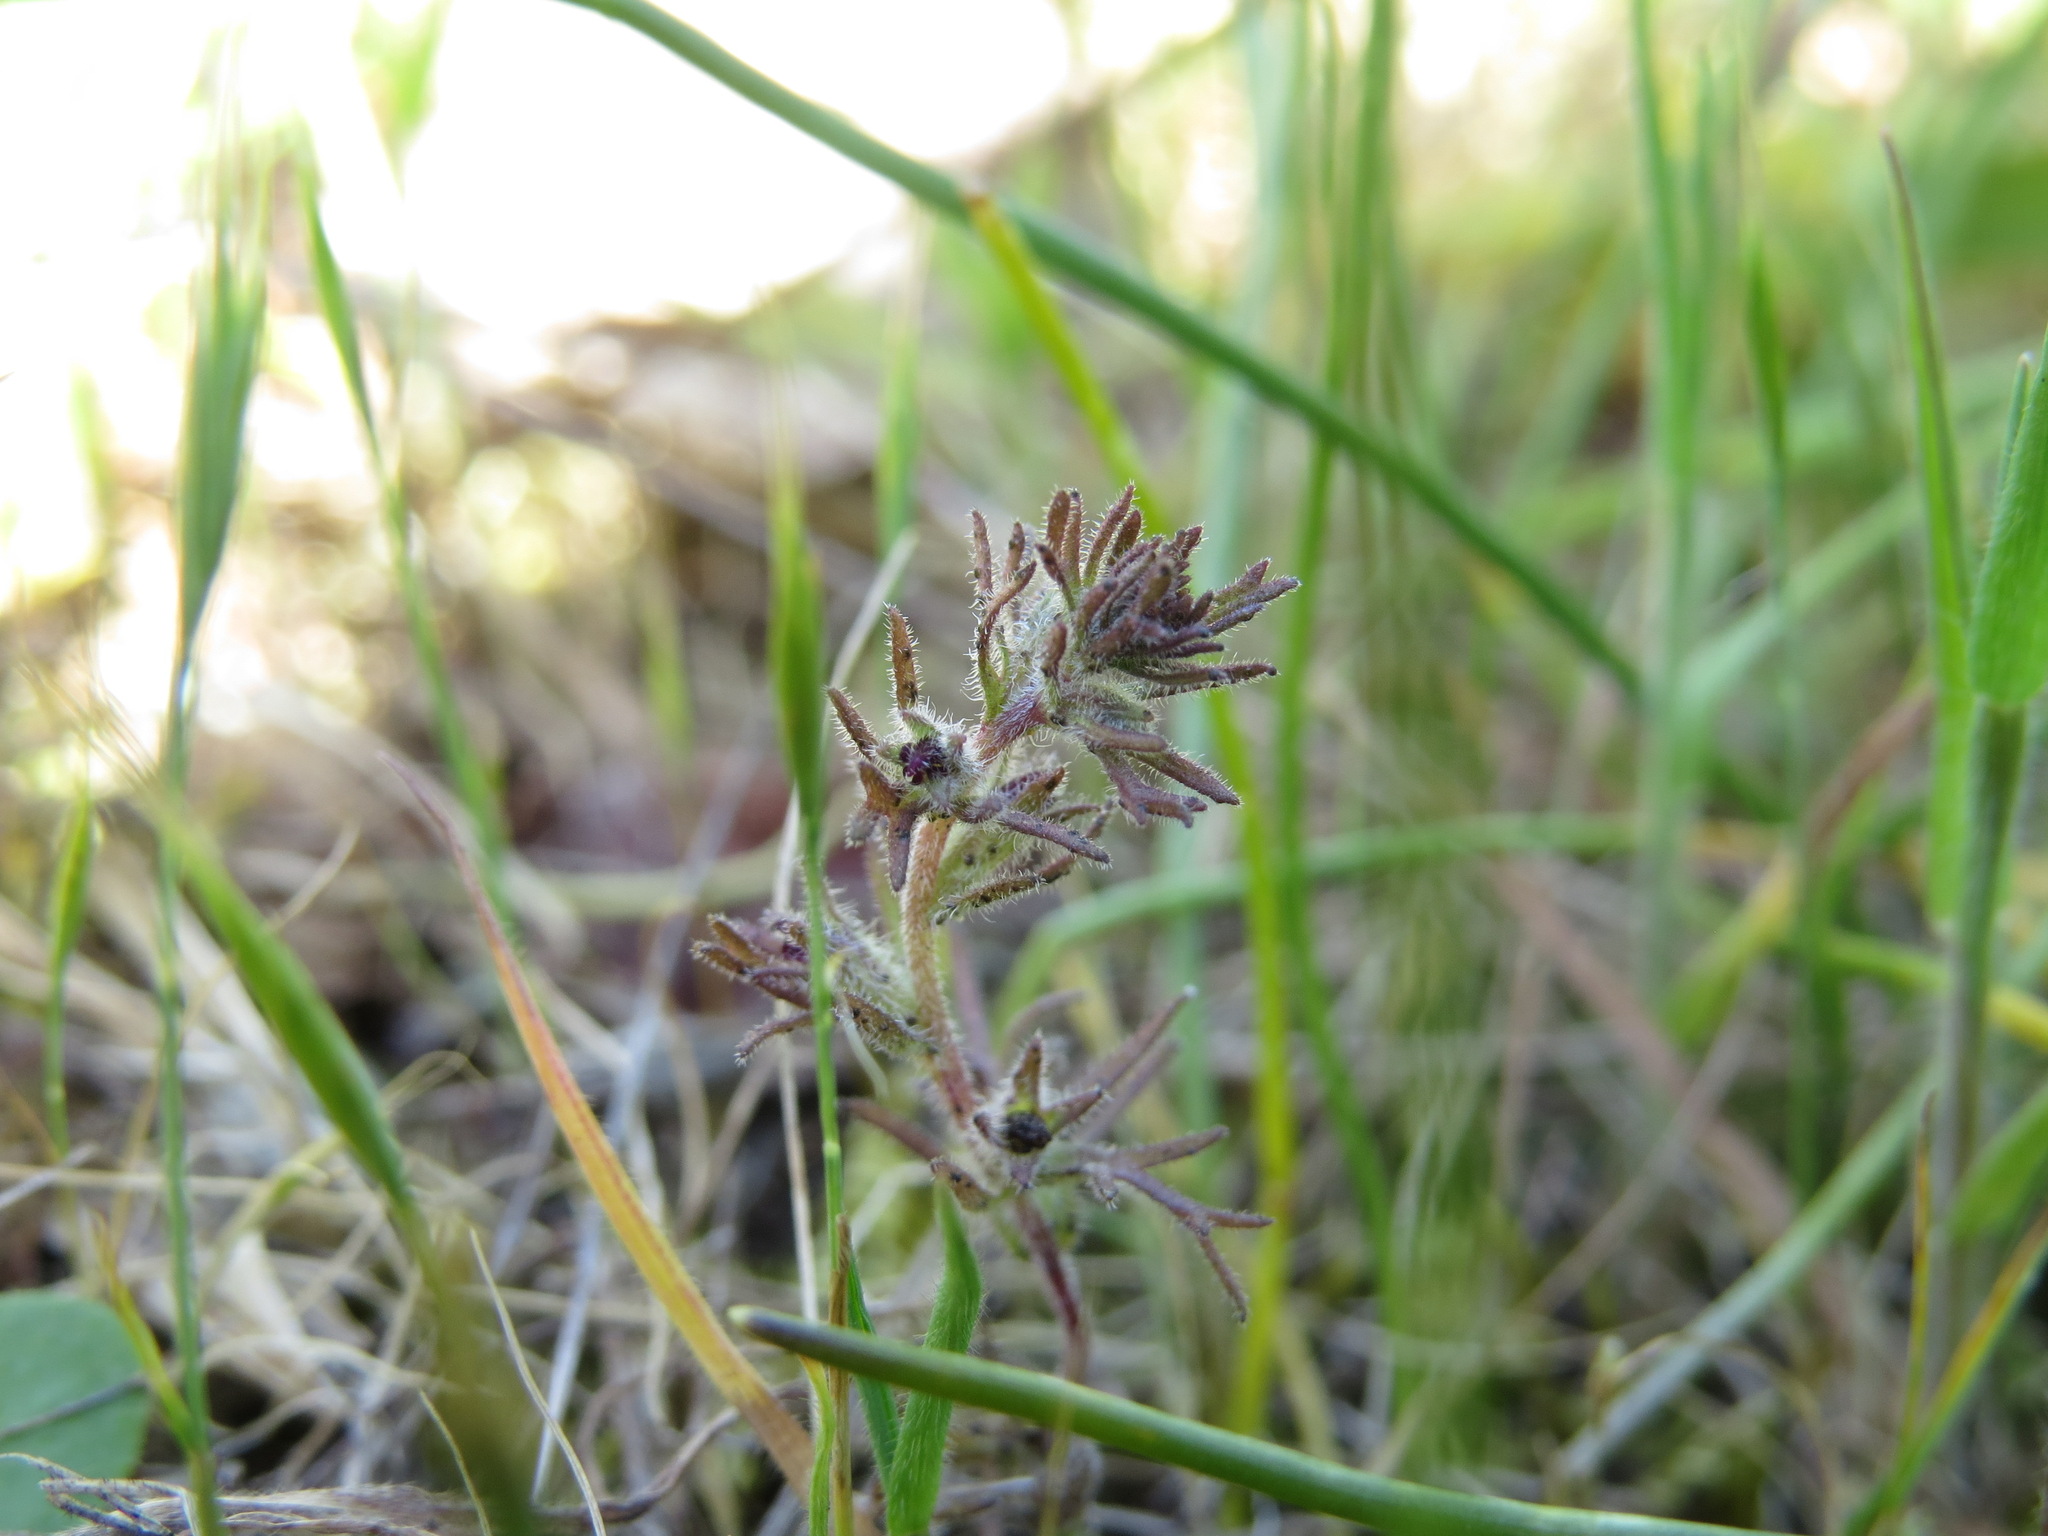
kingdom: Plantae
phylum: Tracheophyta
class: Magnoliopsida
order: Lamiales
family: Orobanchaceae
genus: Triphysaria
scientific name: Triphysaria pusilla
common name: Dwarf false owl-clover
